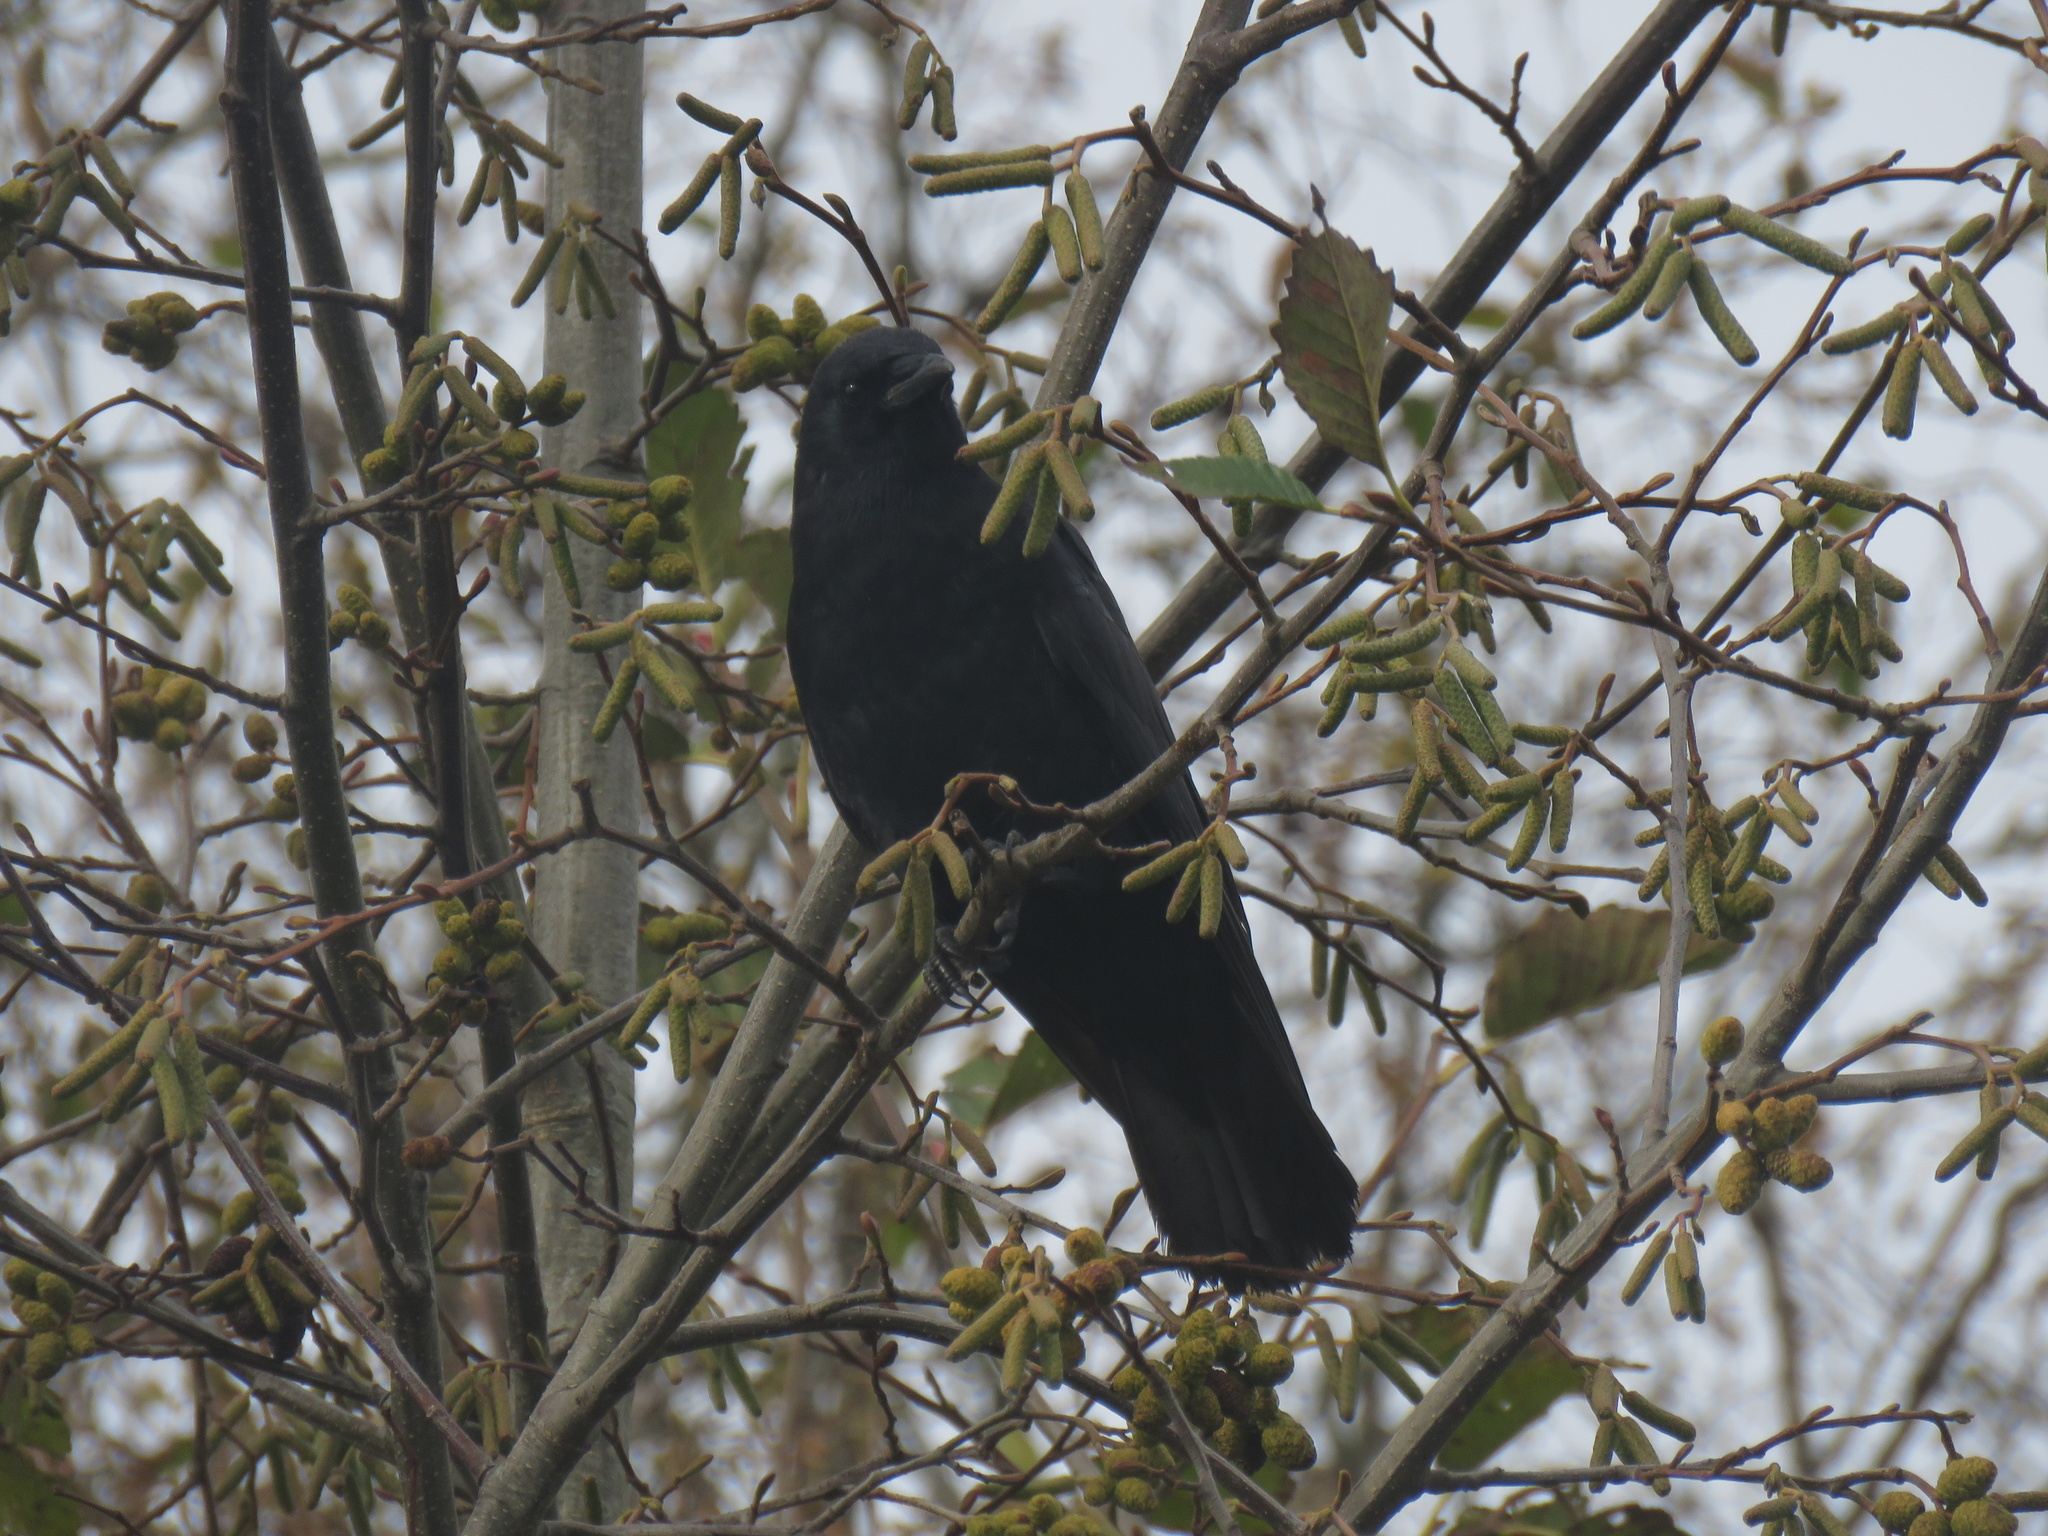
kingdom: Animalia
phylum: Chordata
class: Aves
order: Passeriformes
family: Corvidae
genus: Corvus
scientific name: Corvus brachyrhynchos
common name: American crow
